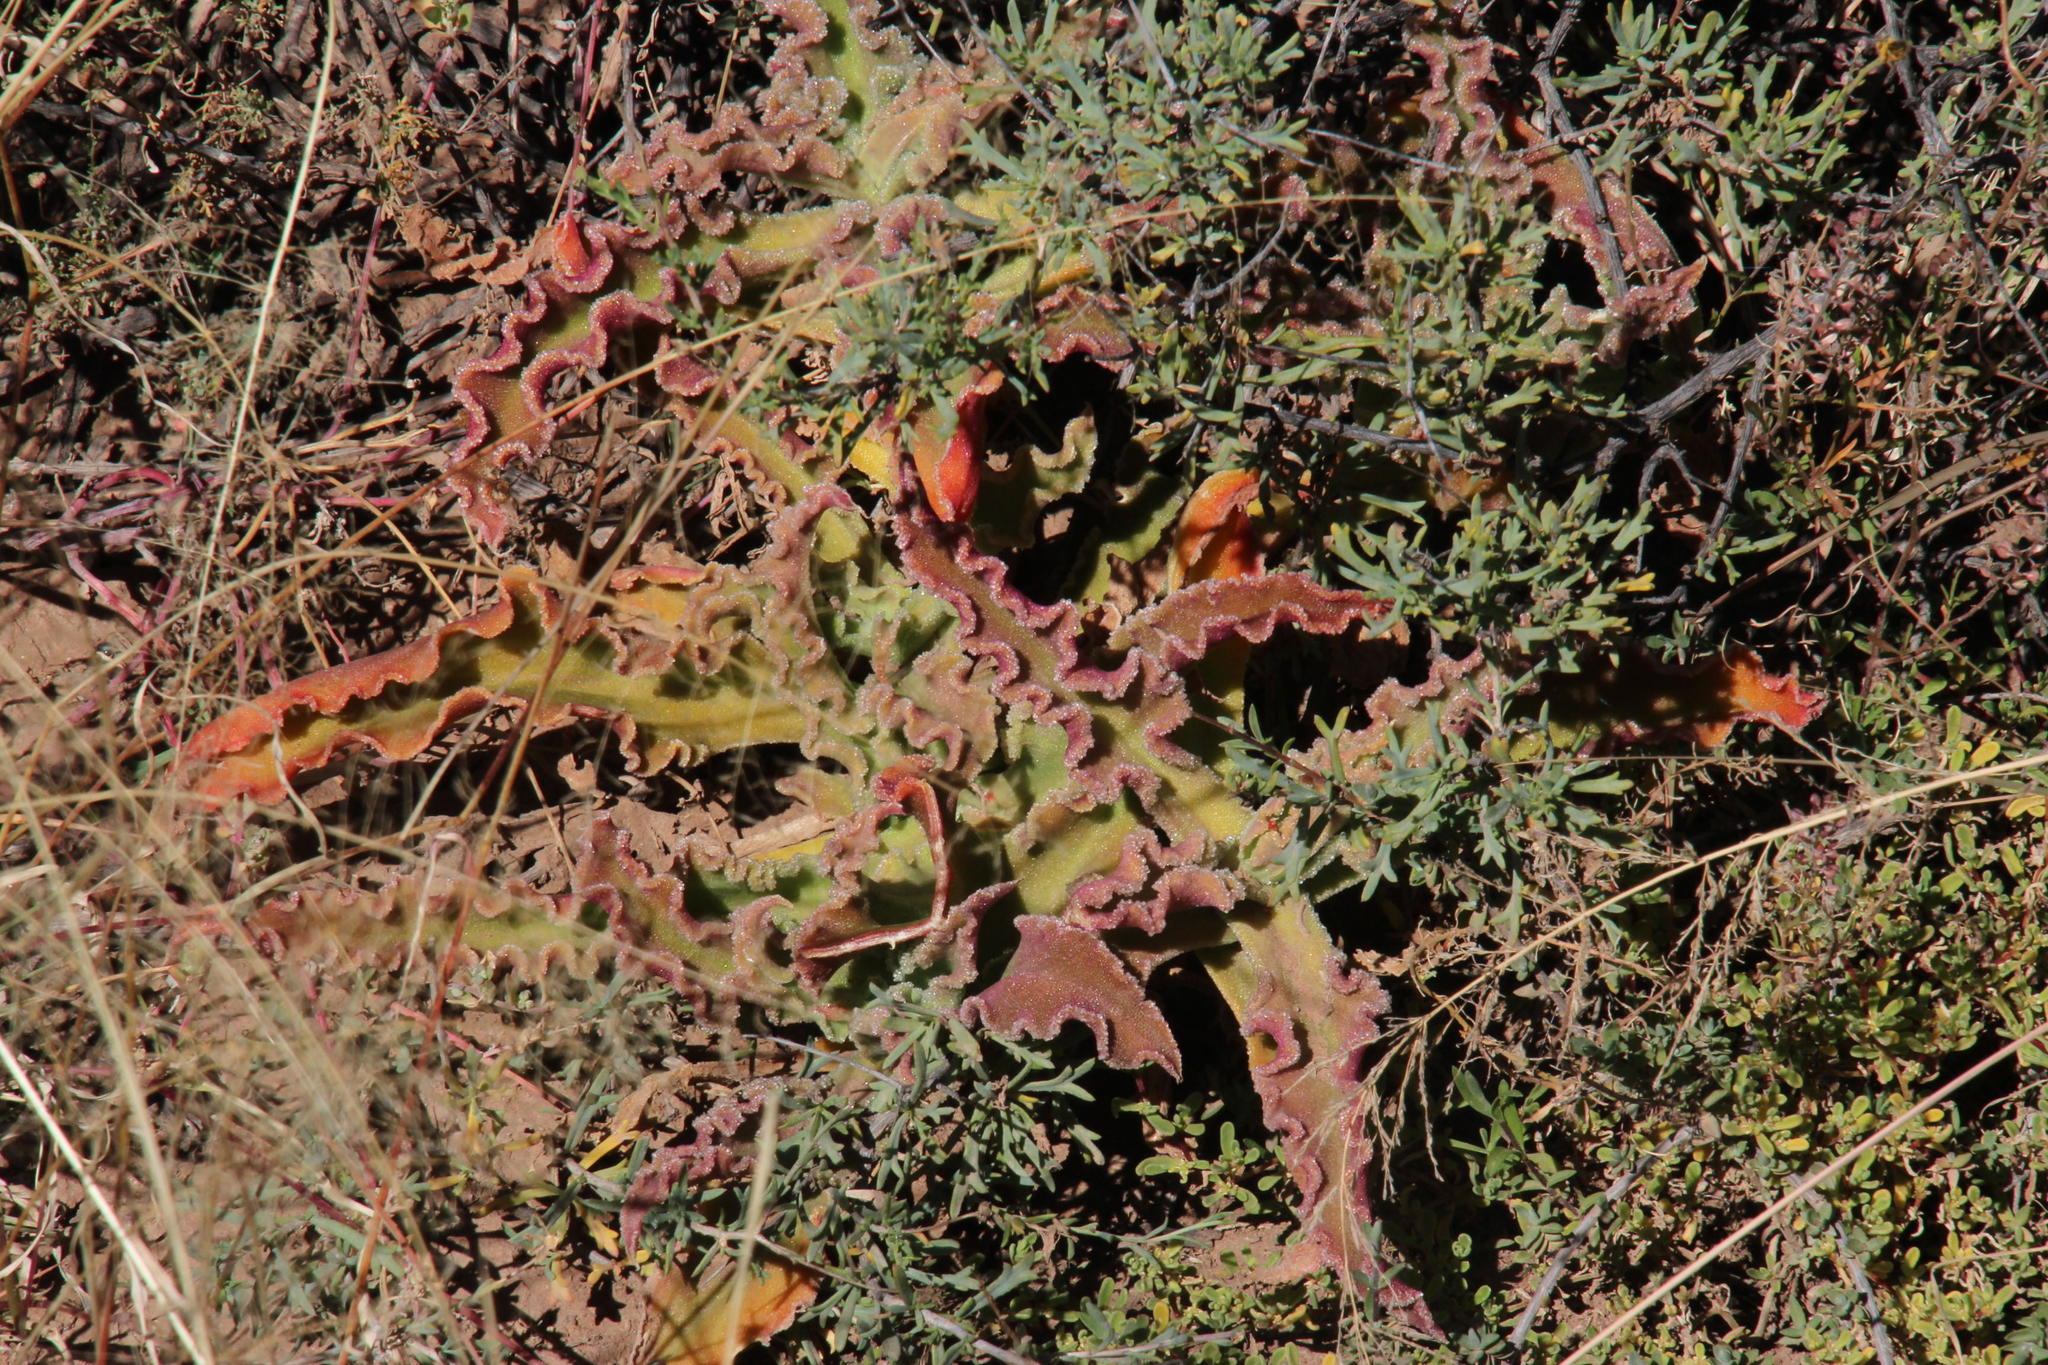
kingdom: Plantae
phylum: Tracheophyta
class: Magnoliopsida
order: Caryophyllales
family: Aizoaceae
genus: Mesembryanthemum
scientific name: Mesembryanthemum guerichianum
